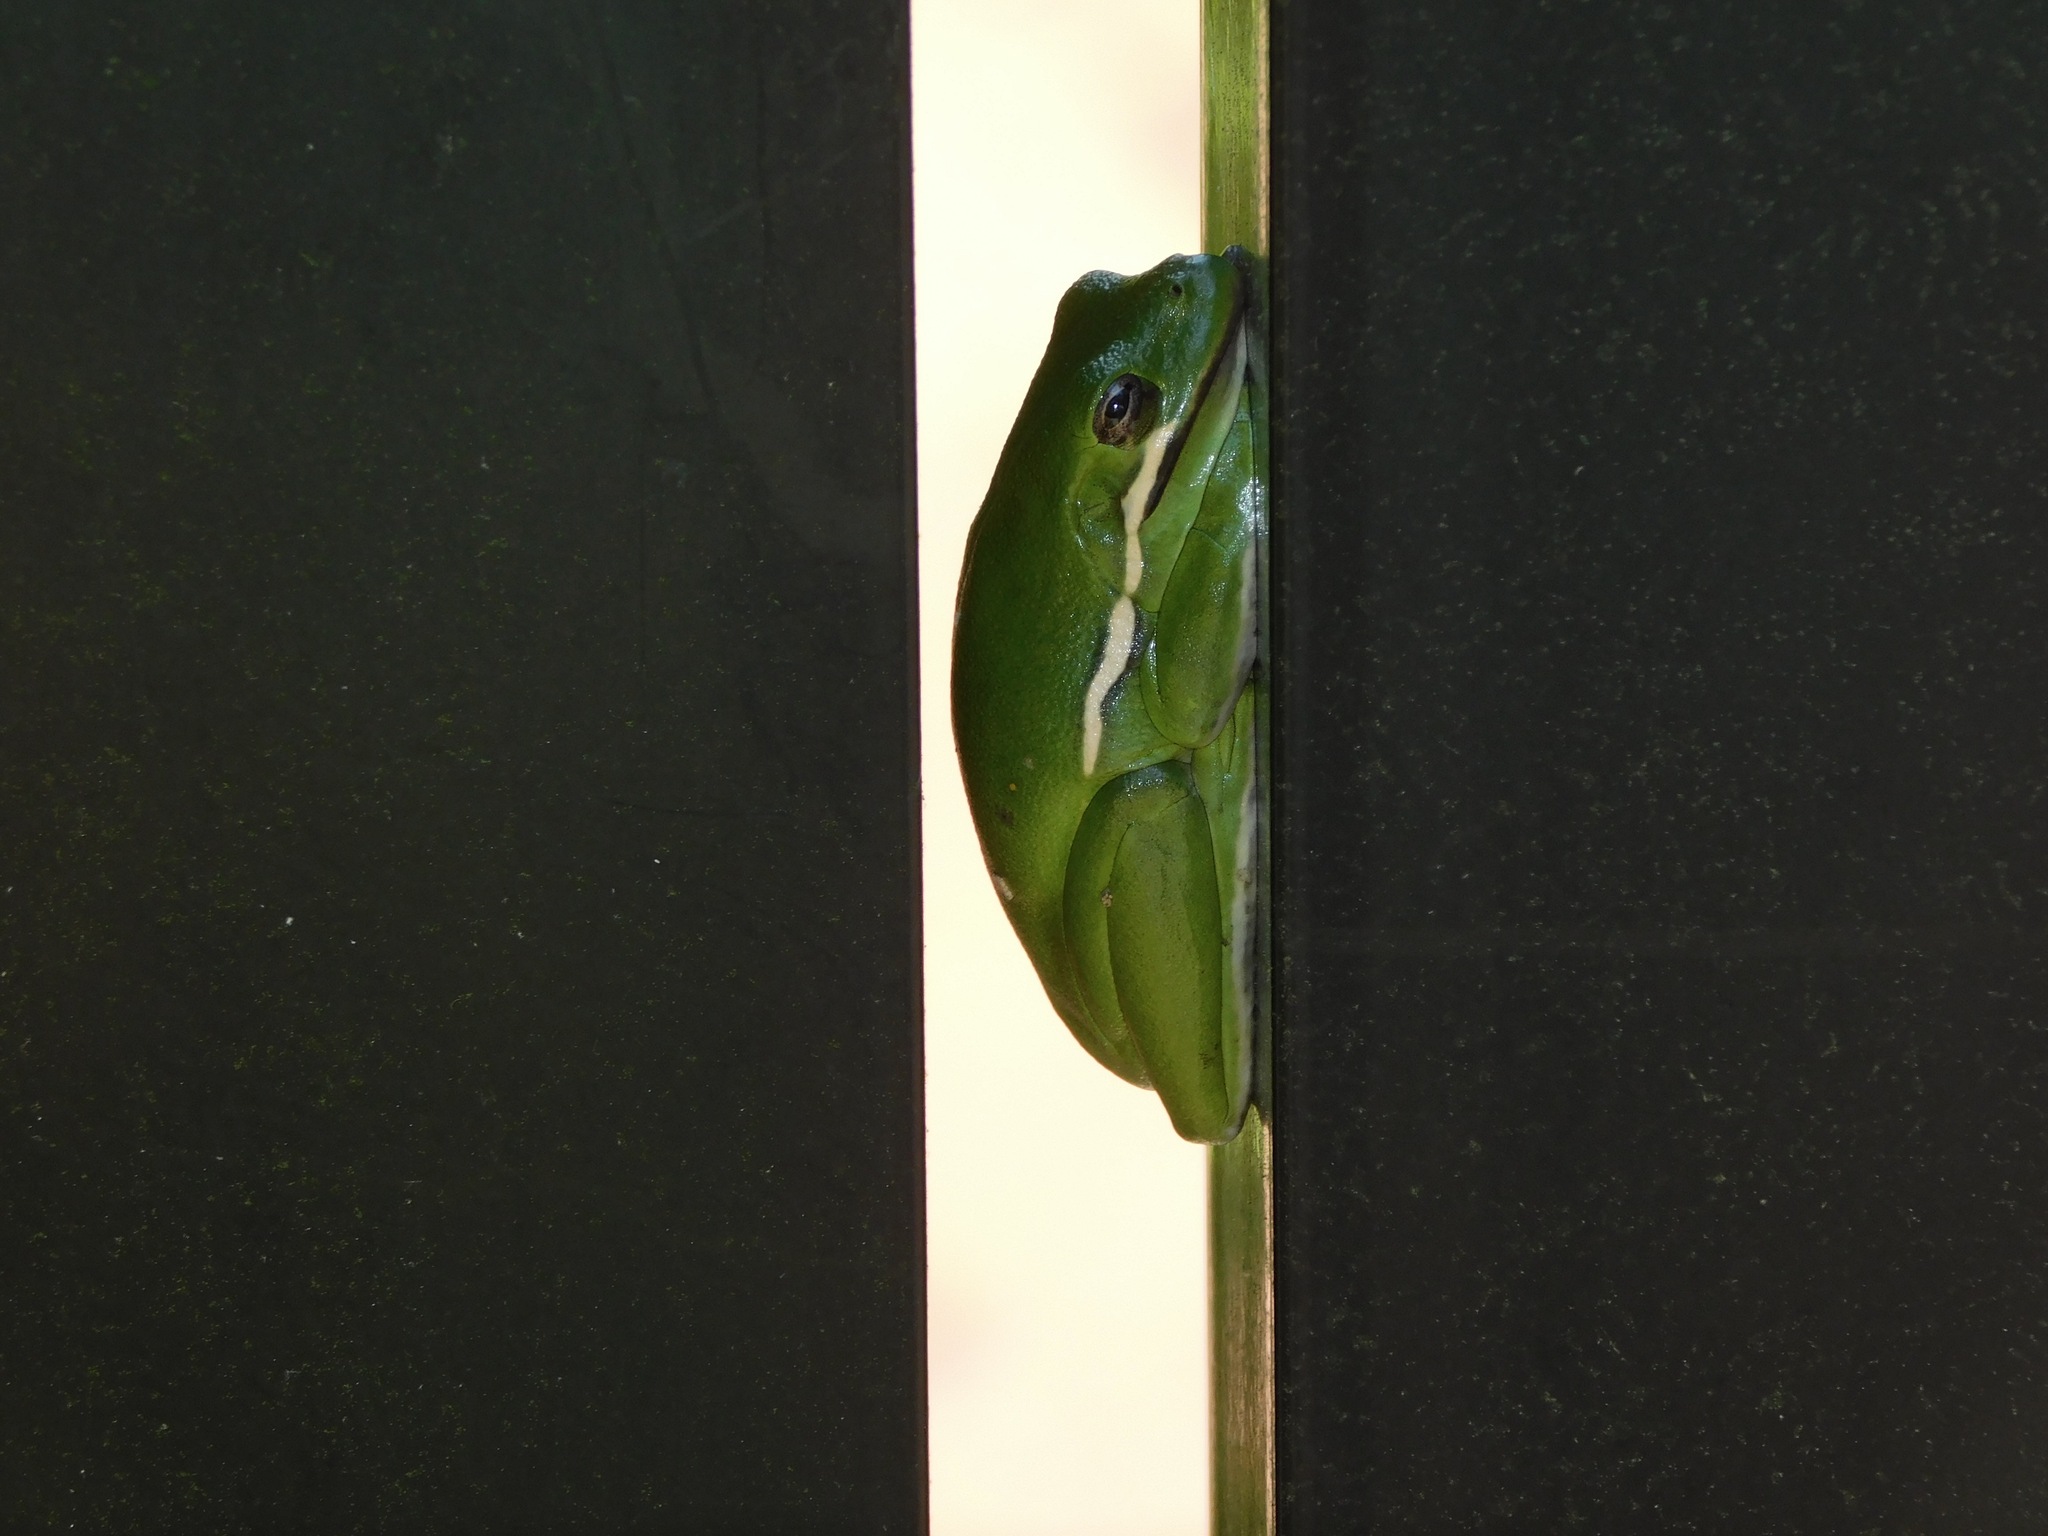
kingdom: Animalia
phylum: Chordata
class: Amphibia
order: Anura
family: Hylidae
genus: Dryophytes
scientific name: Dryophytes cinereus
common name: Green treefrog
